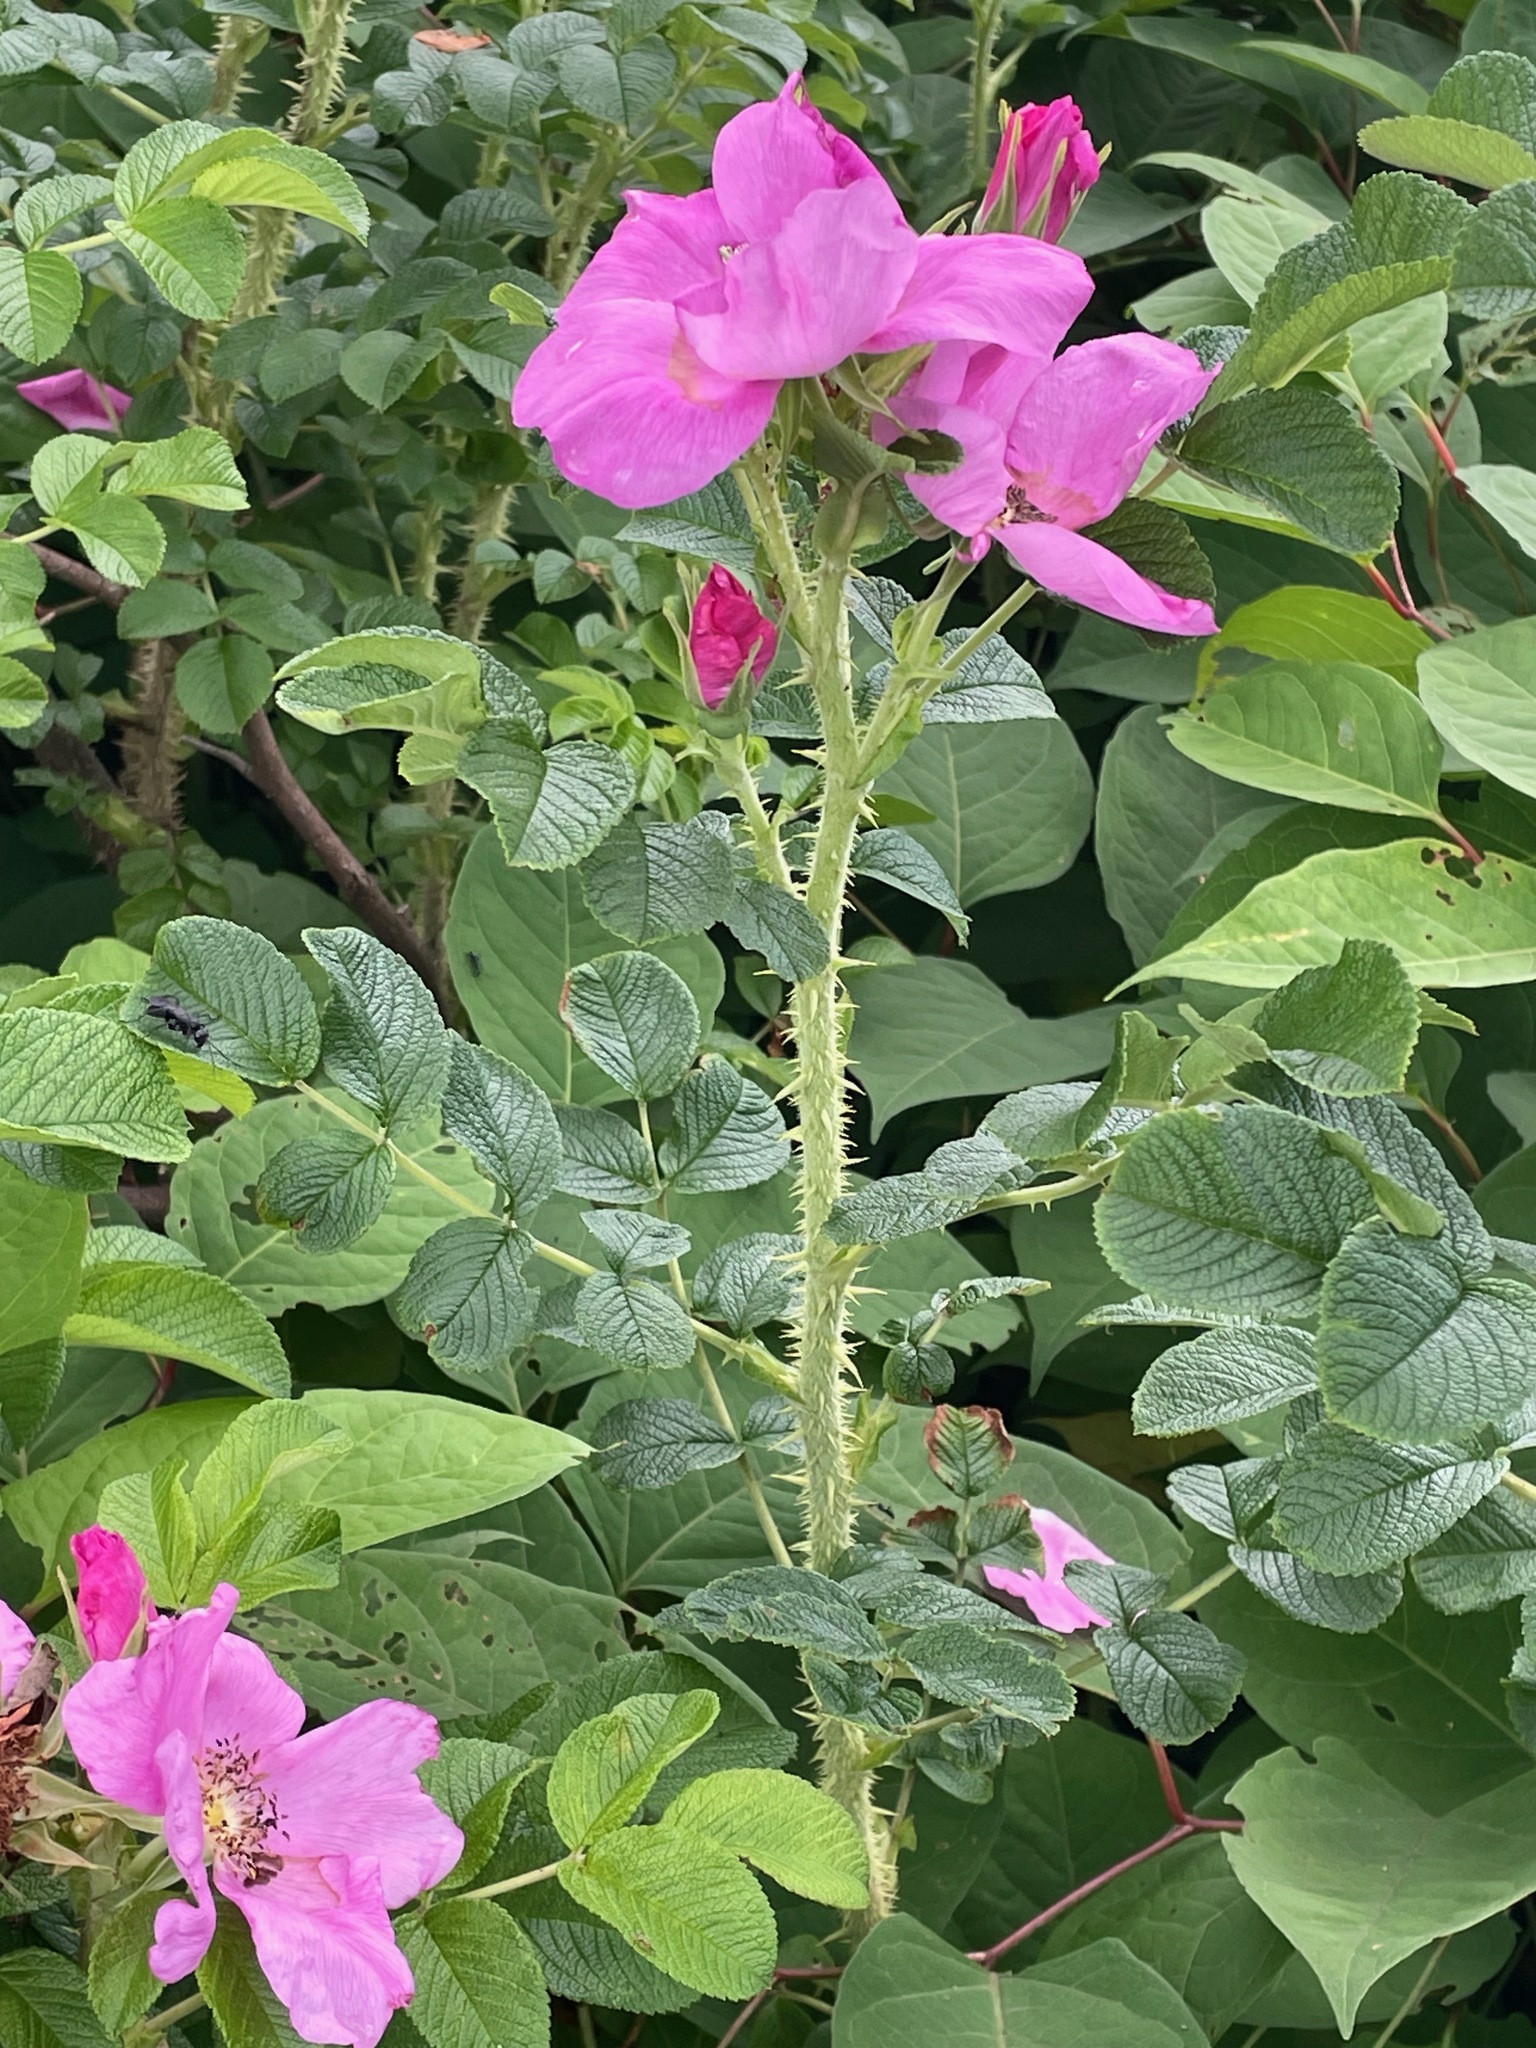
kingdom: Plantae
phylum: Tracheophyta
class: Magnoliopsida
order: Rosales
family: Rosaceae
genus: Rosa
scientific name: Rosa rugosa
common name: Japanese rose
